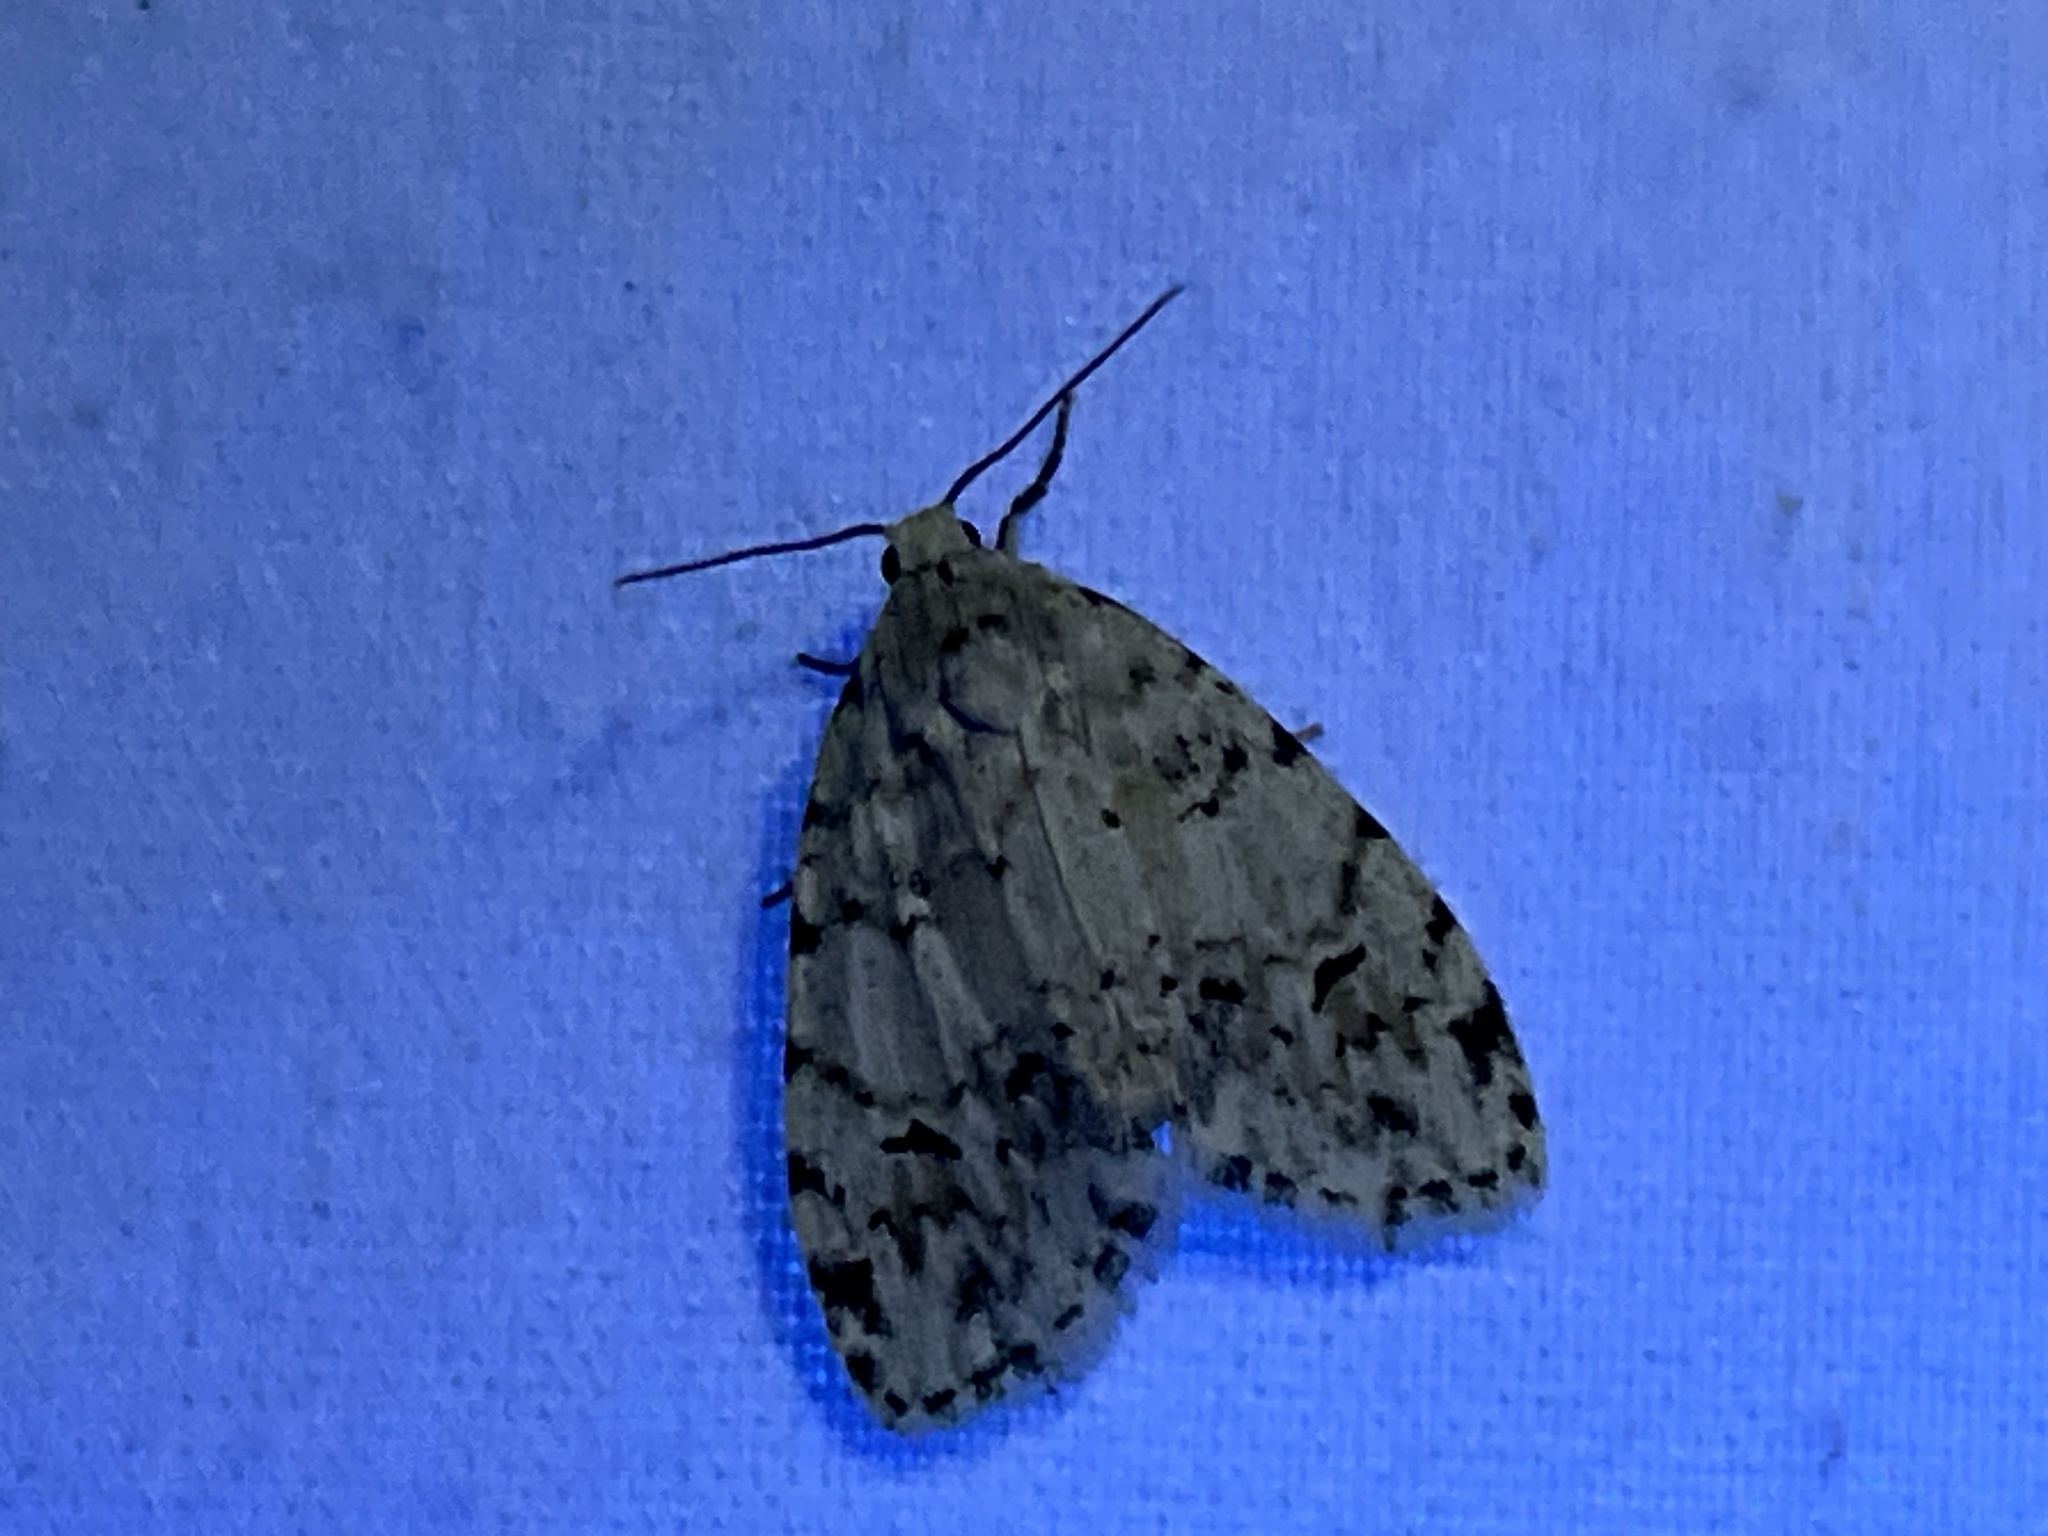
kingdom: Animalia
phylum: Arthropoda
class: Insecta
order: Lepidoptera
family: Erebidae
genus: Clemensia
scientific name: Clemensia albata
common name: Little white lichen moth
